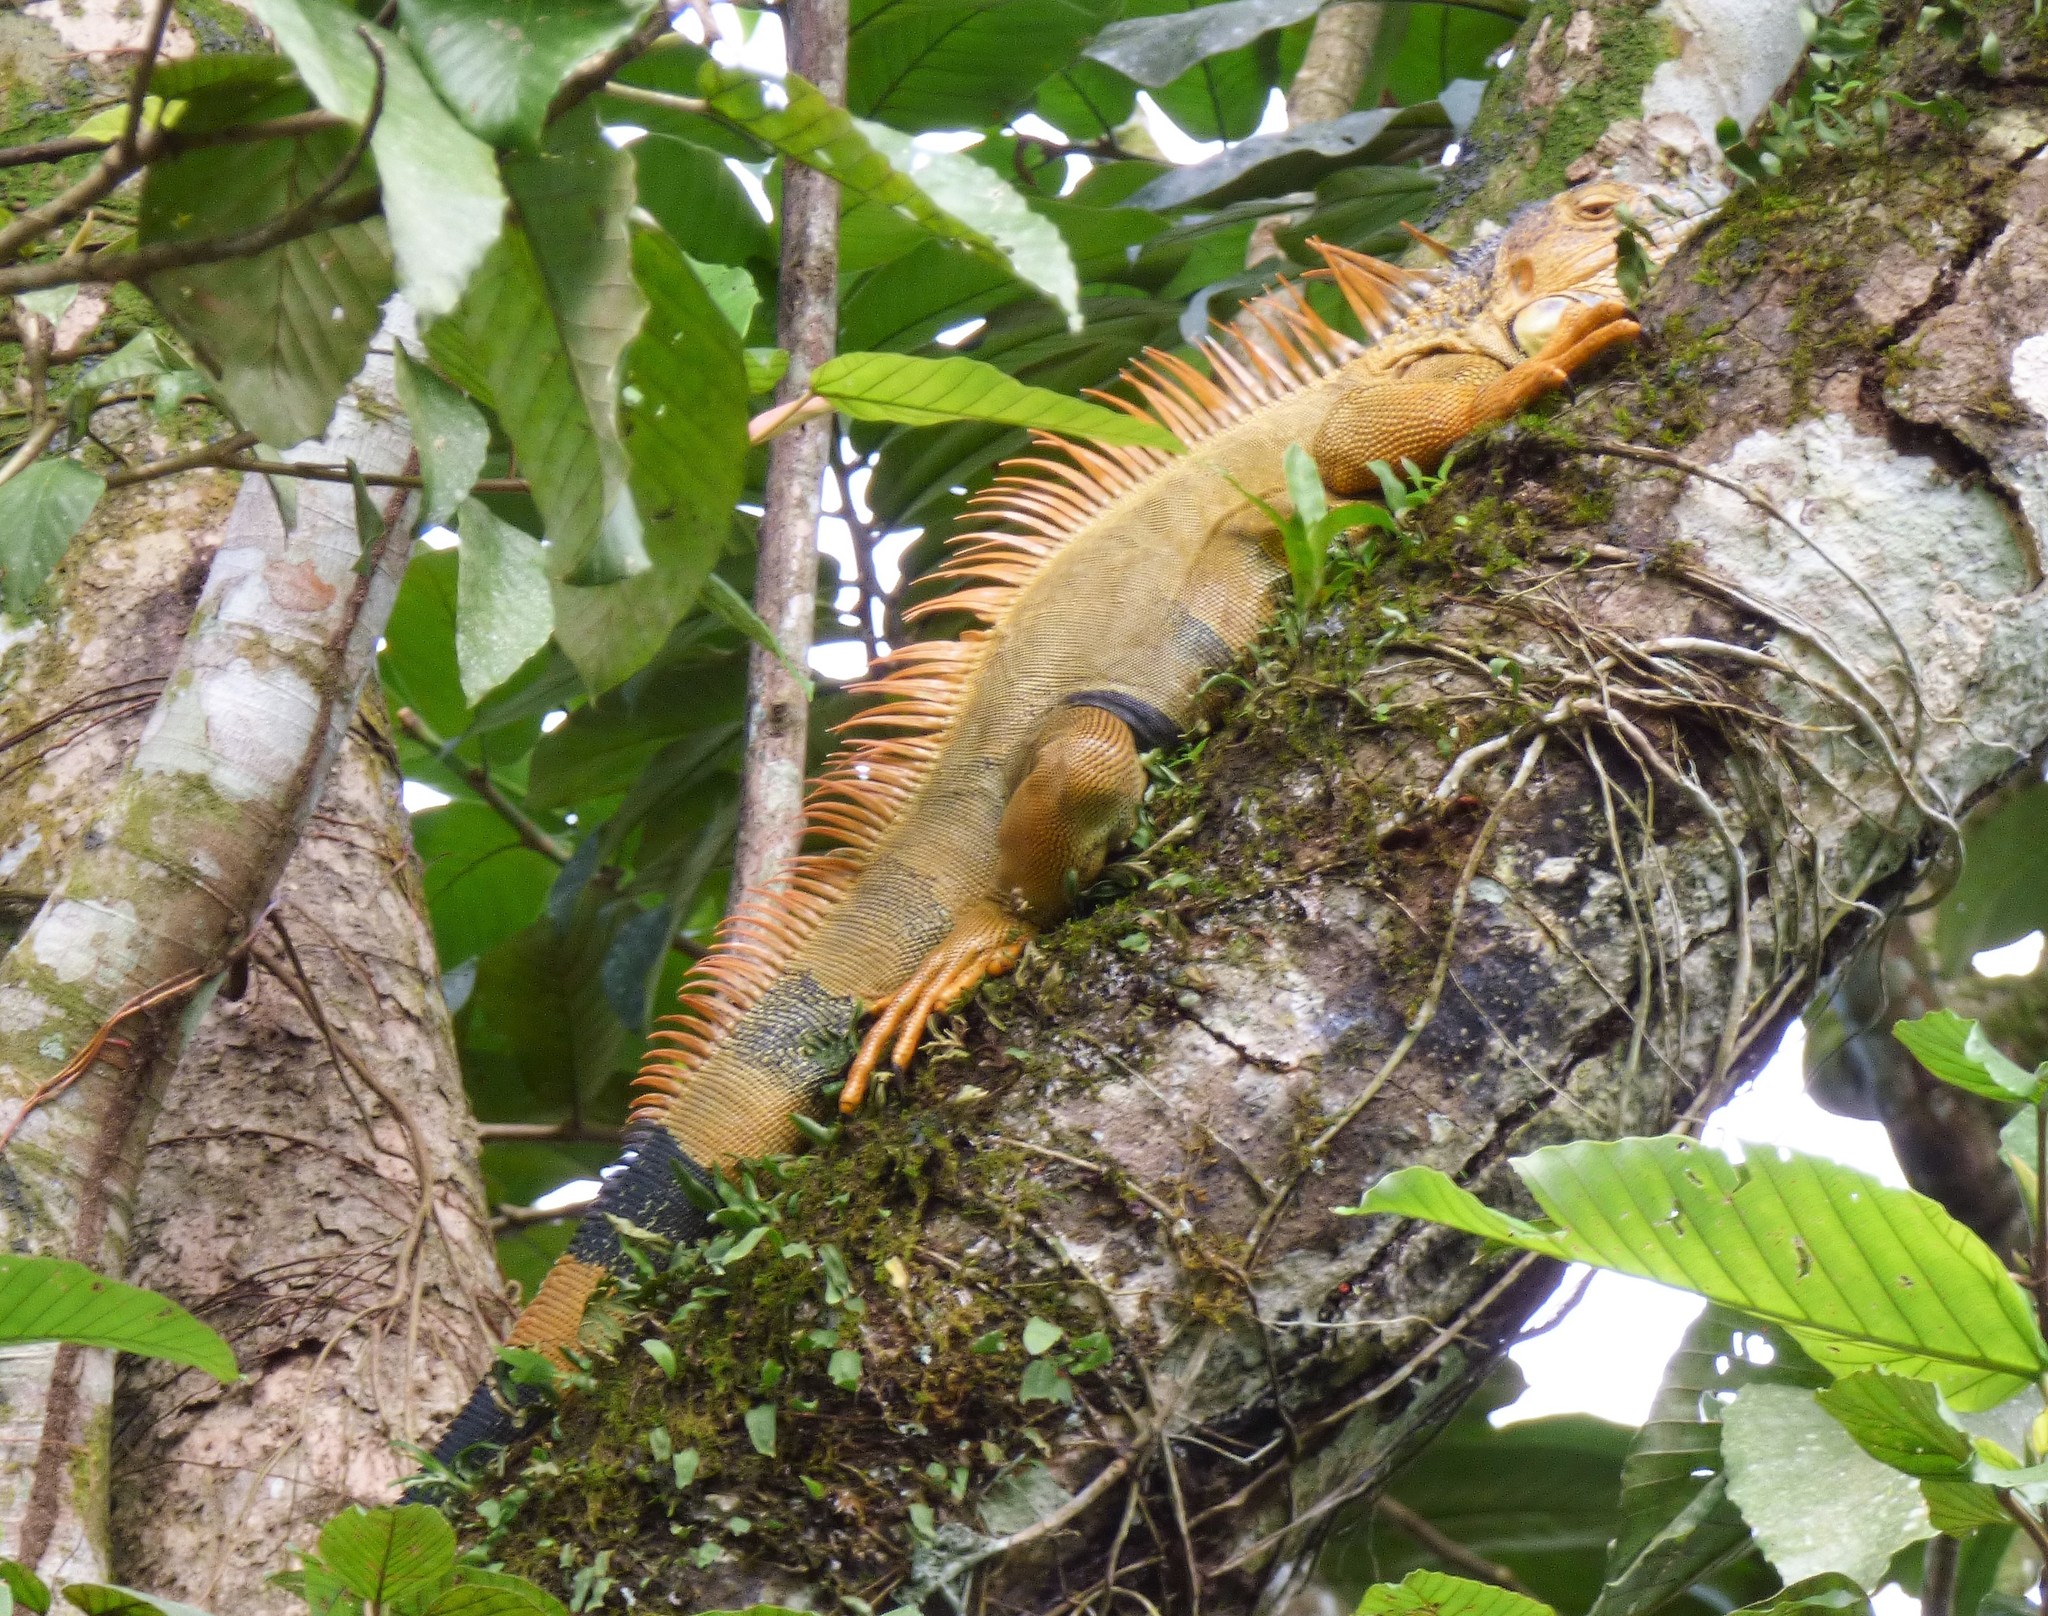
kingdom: Animalia
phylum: Chordata
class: Squamata
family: Iguanidae
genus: Iguana
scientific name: Iguana iguana
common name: Green iguana
